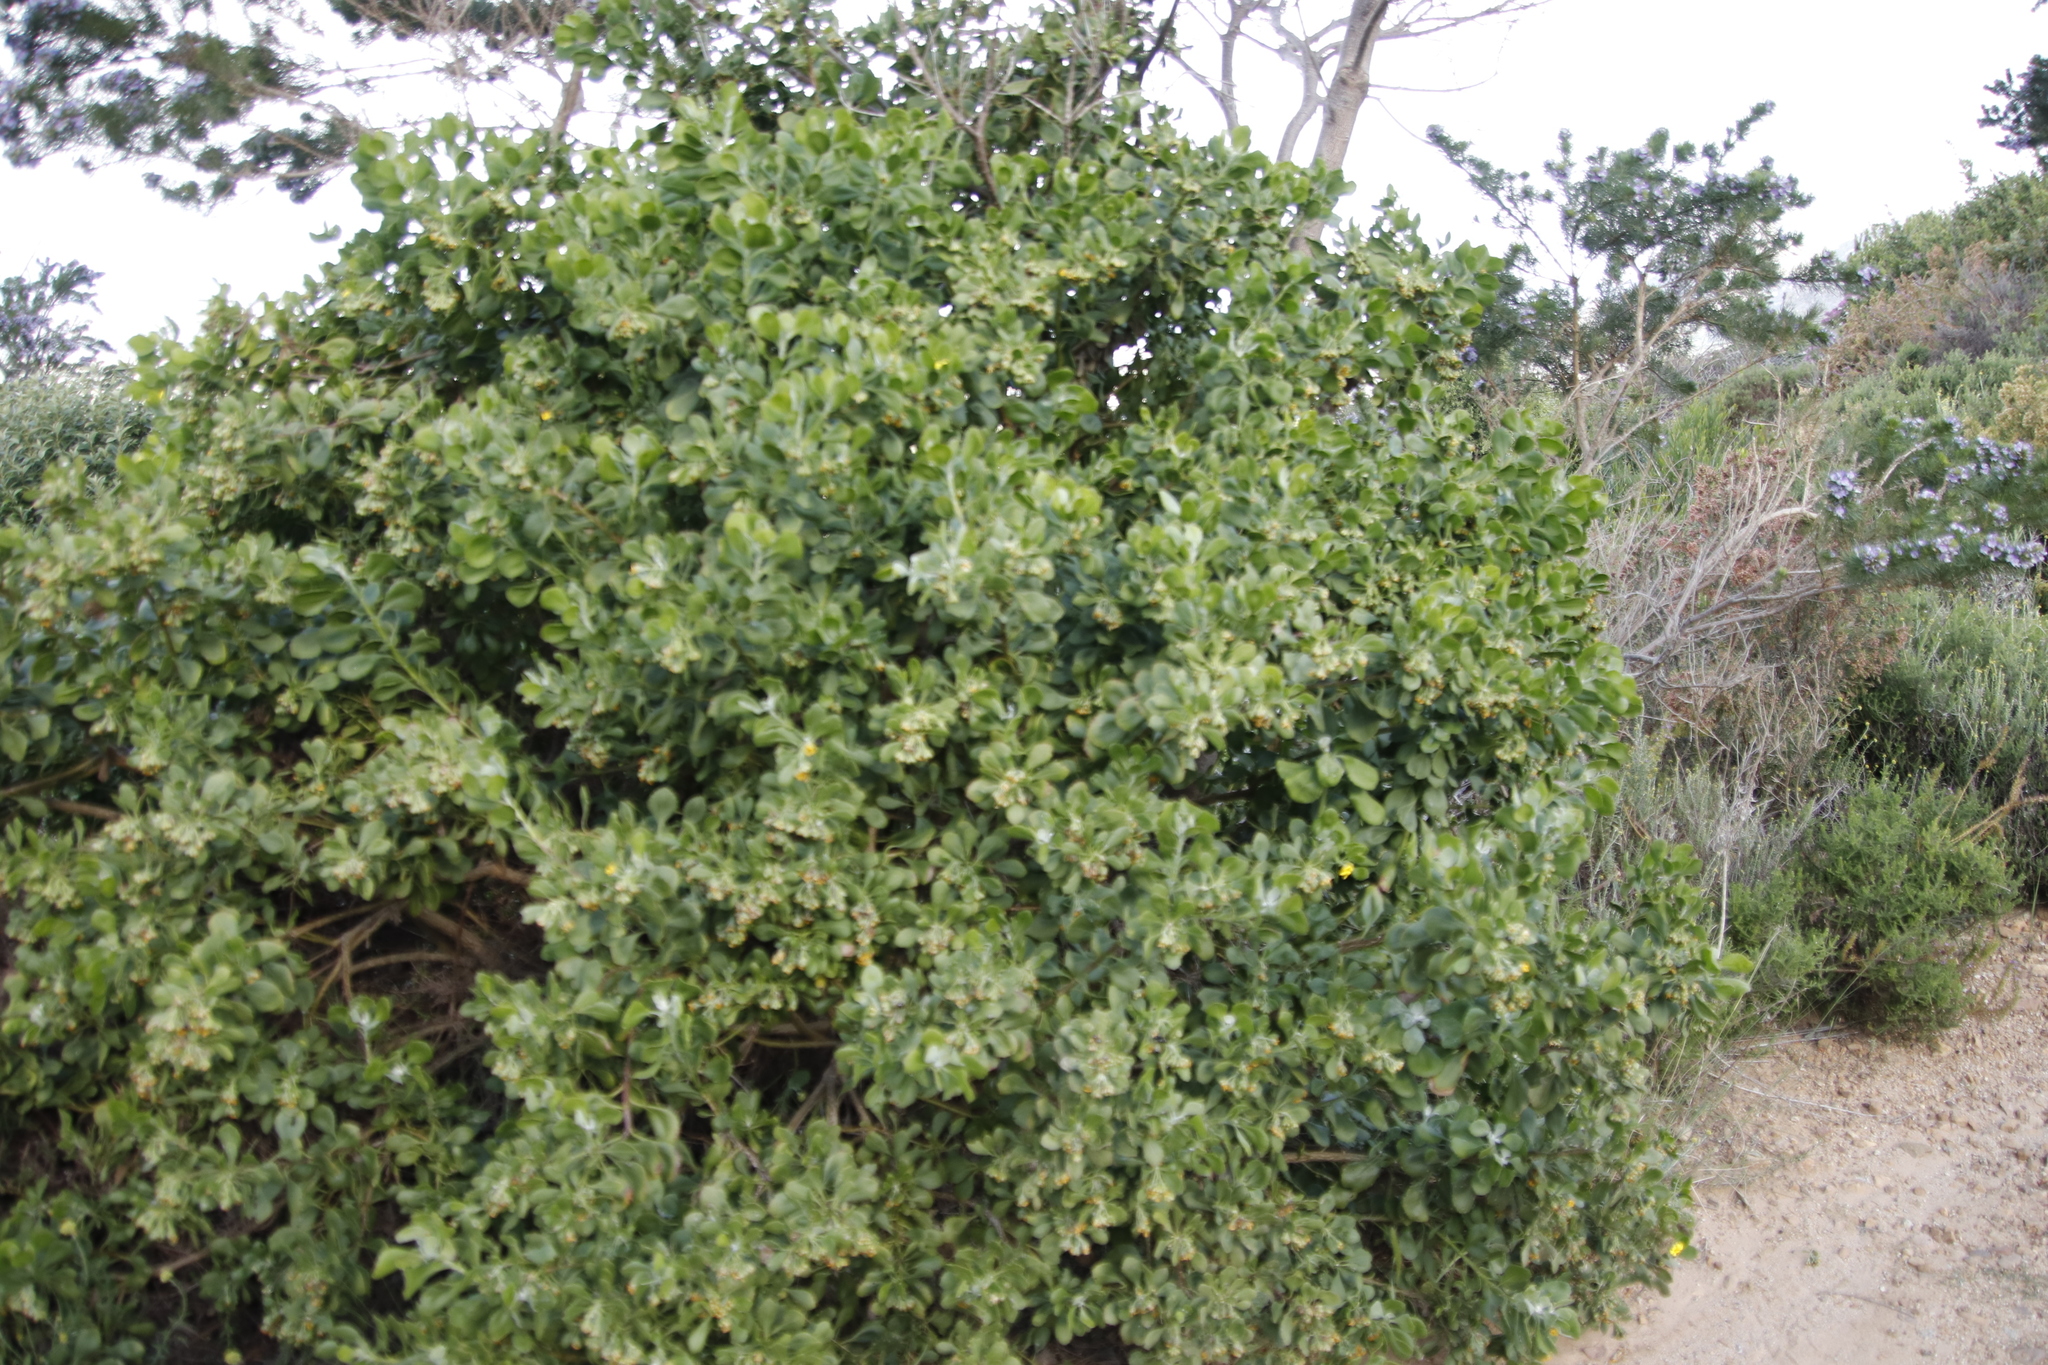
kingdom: Plantae
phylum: Tracheophyta
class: Magnoliopsida
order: Asterales
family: Asteraceae
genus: Osteospermum
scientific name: Osteospermum moniliferum
